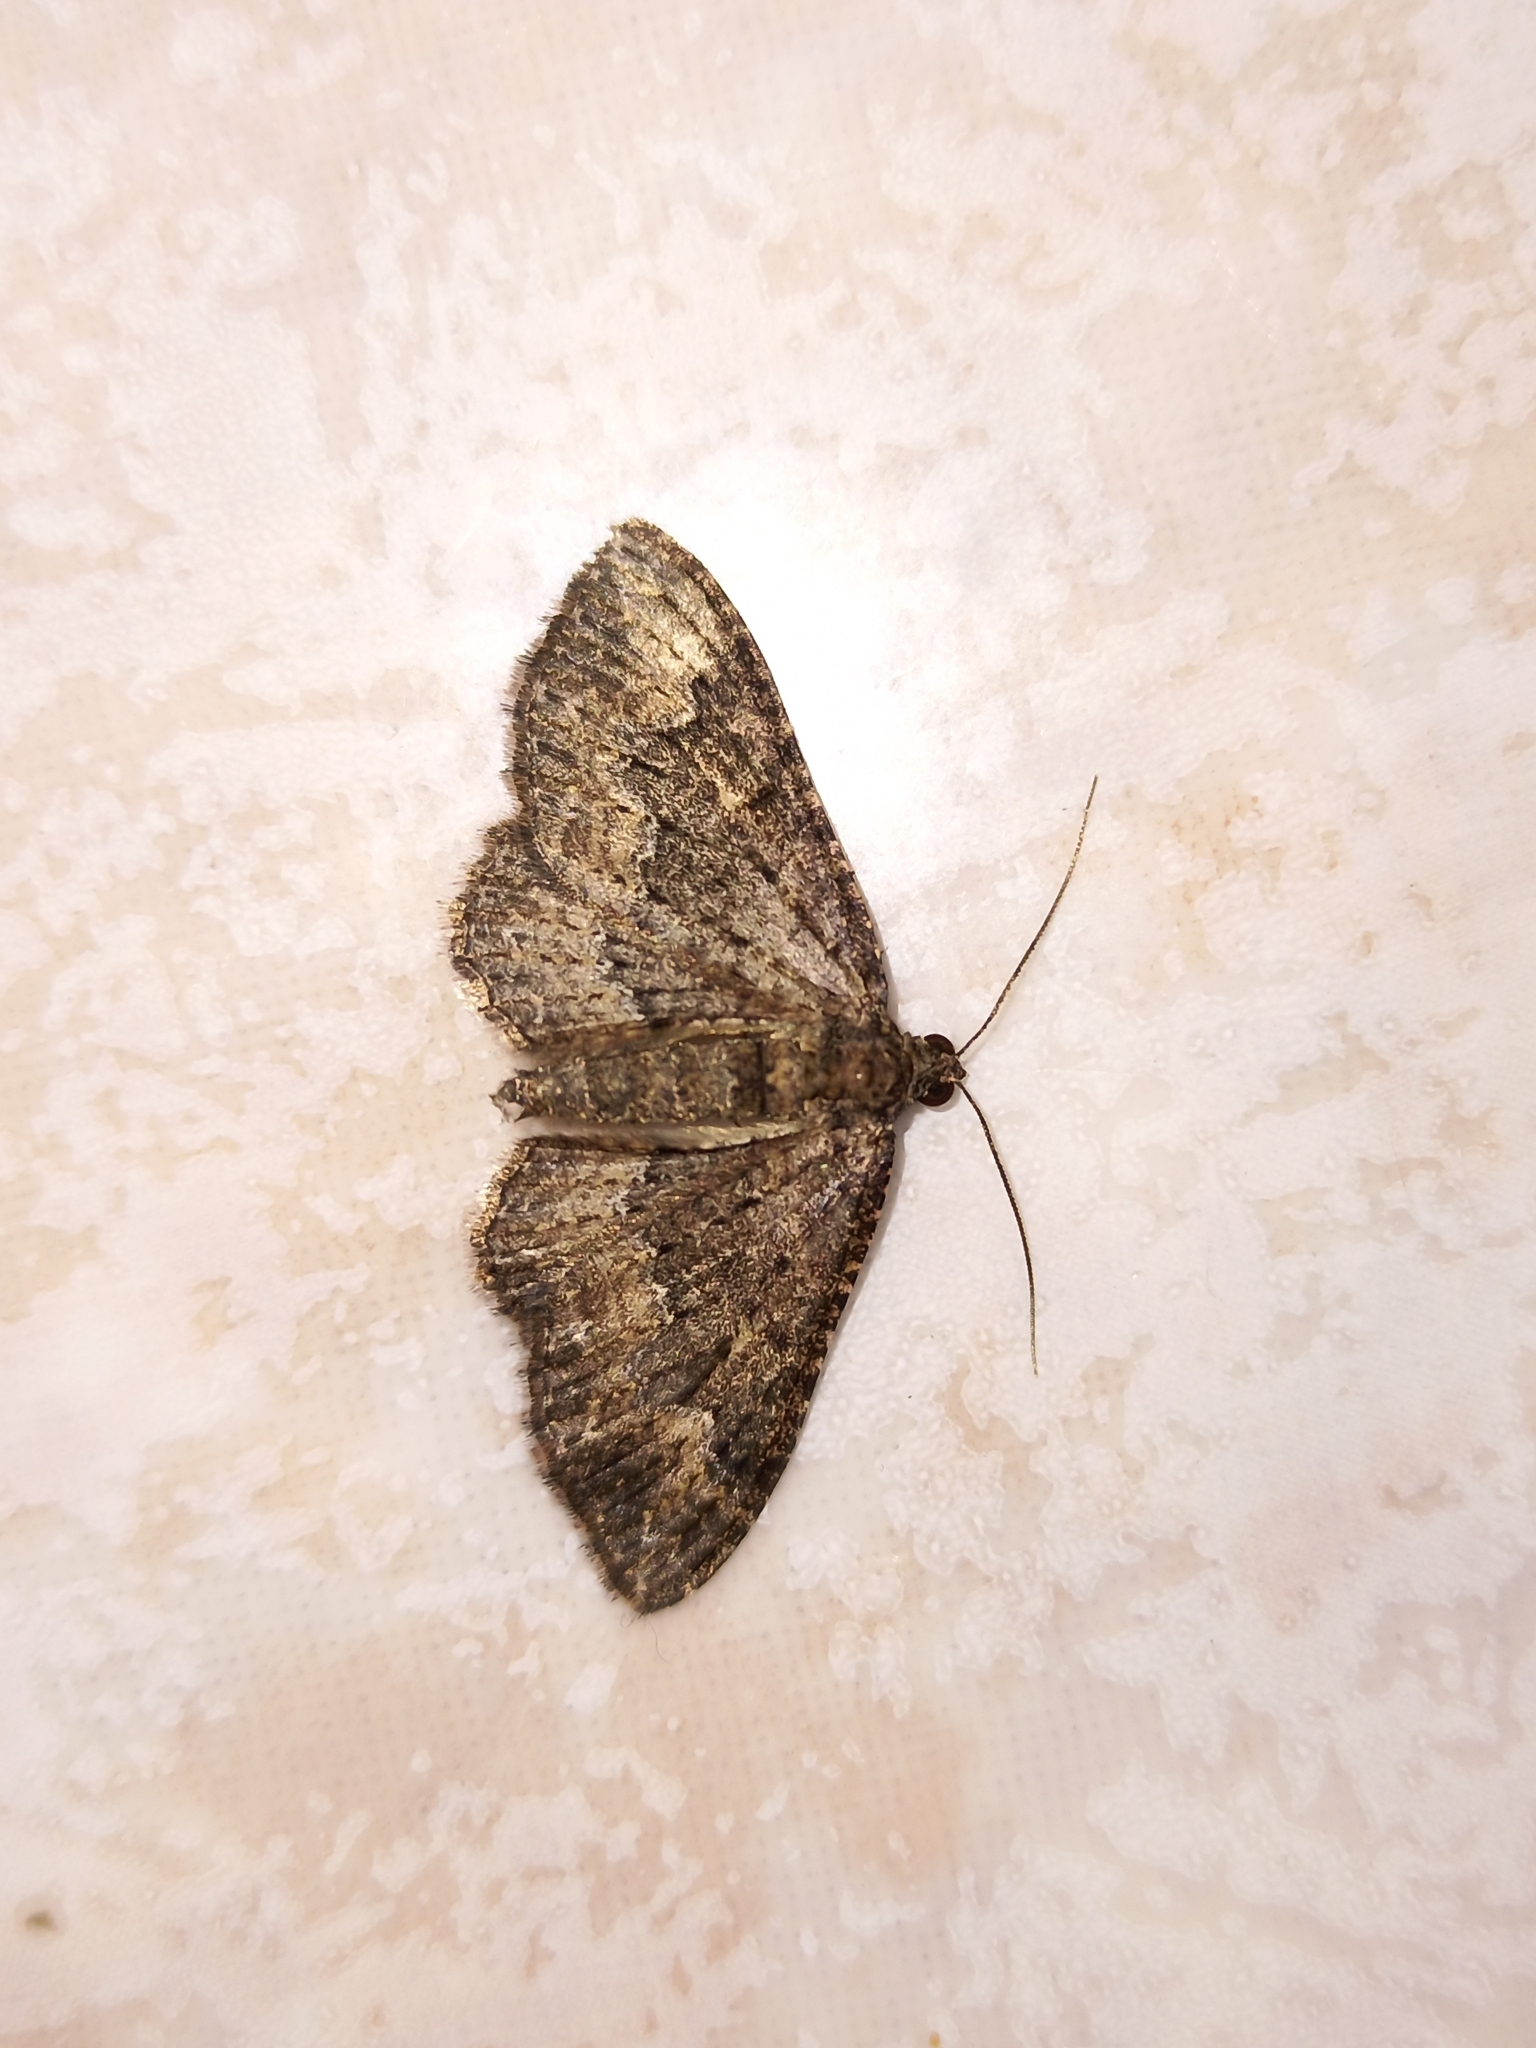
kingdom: Animalia
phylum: Arthropoda
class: Insecta
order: Lepidoptera
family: Geometridae
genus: Disclisioprocta
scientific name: Disclisioprocta stellata
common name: Somber carpet
